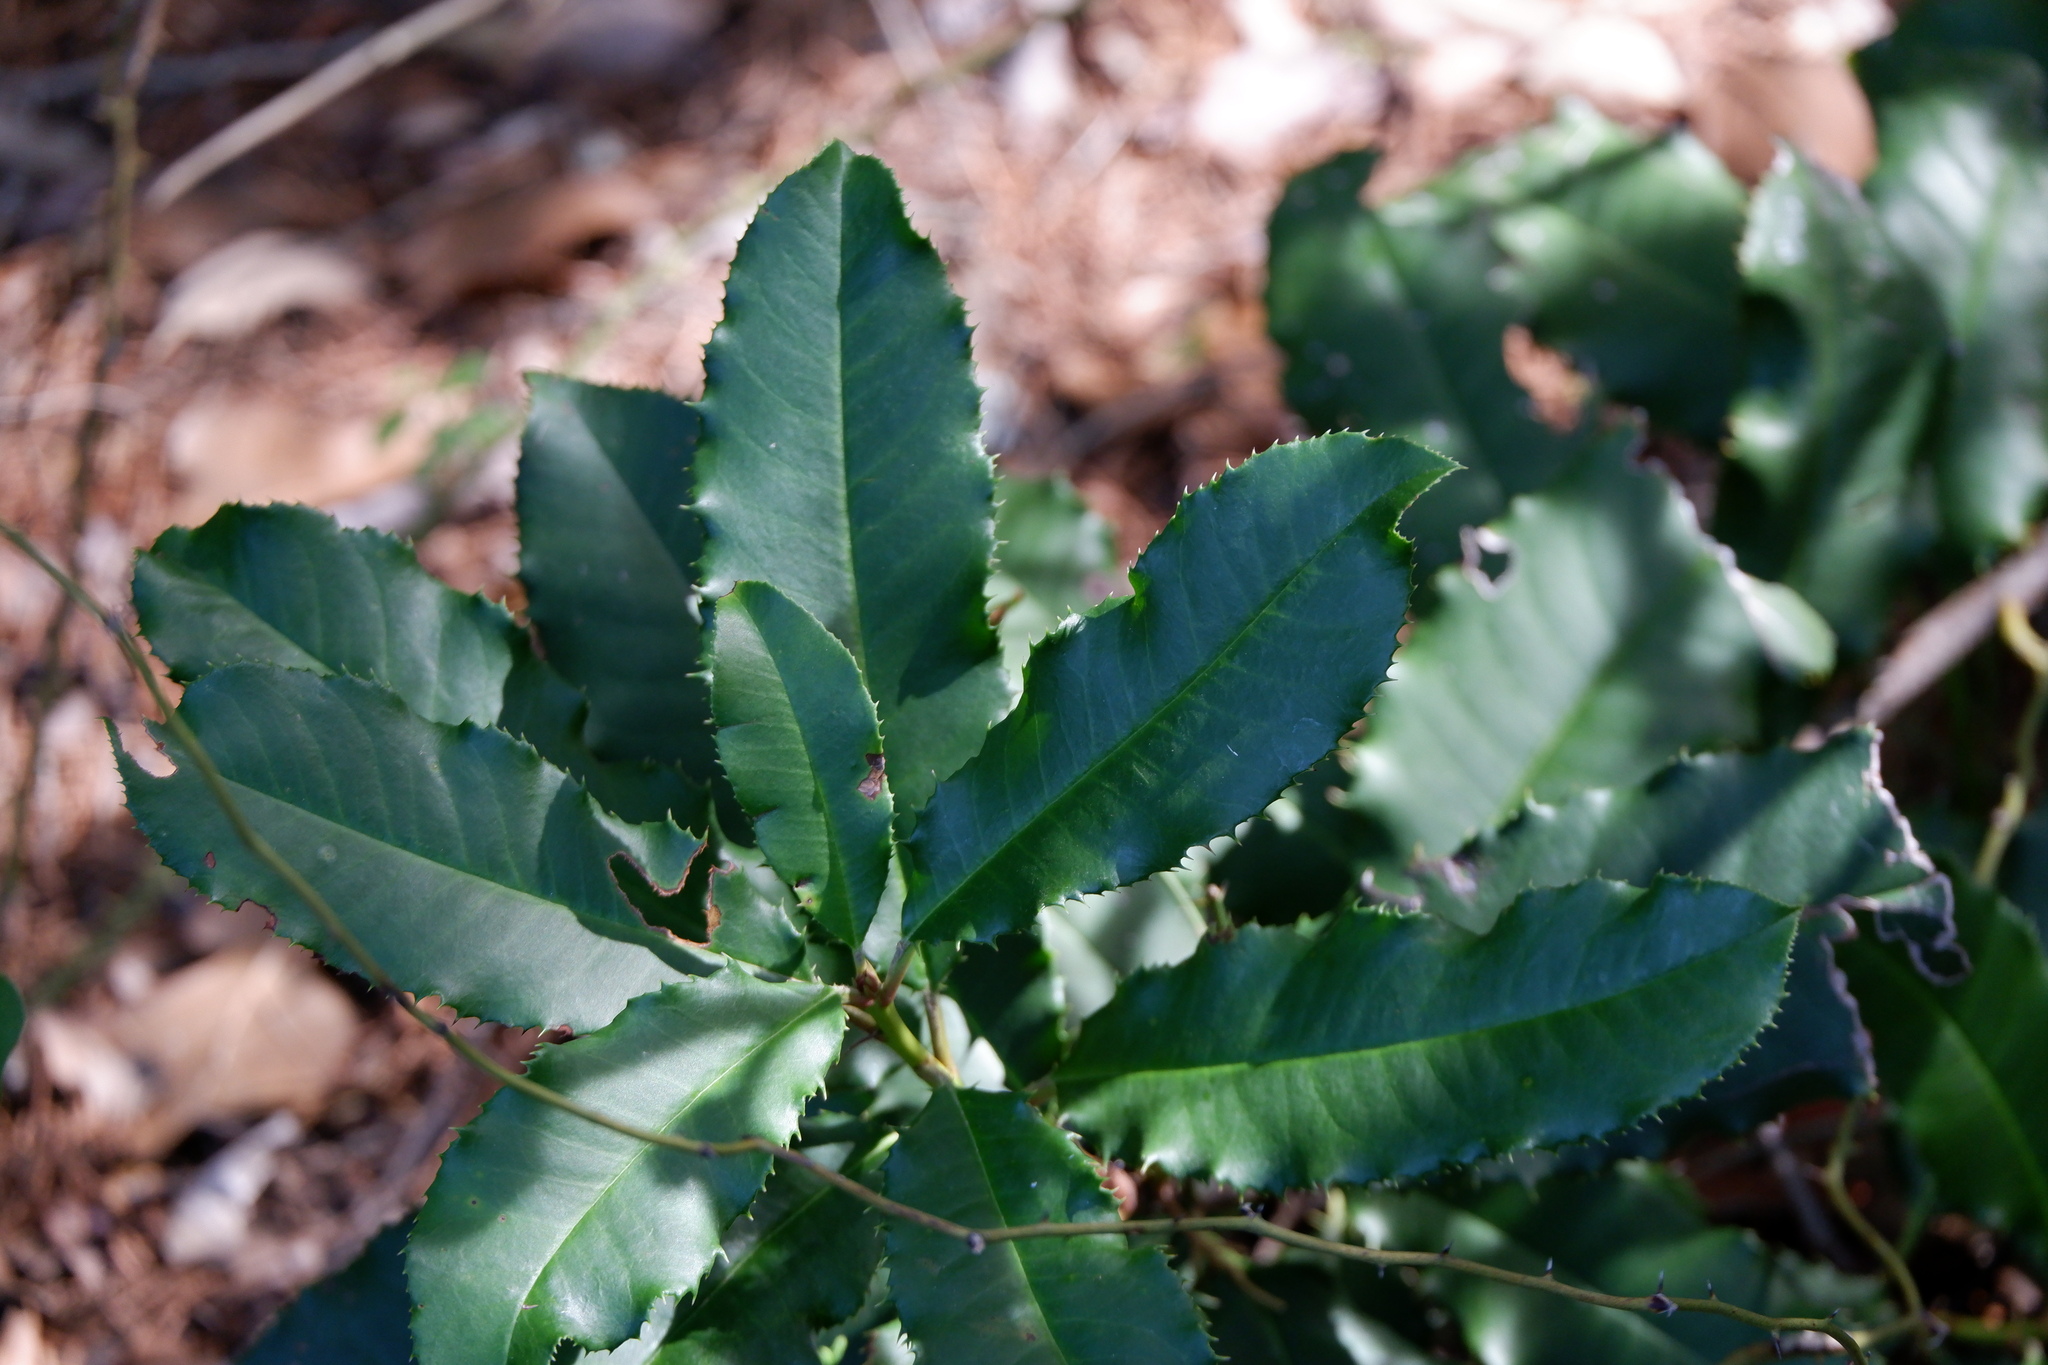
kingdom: Plantae
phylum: Tracheophyta
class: Magnoliopsida
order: Rosales
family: Rosaceae
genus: Photinia
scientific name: Photinia serratifolia
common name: Taiwanese photinia
